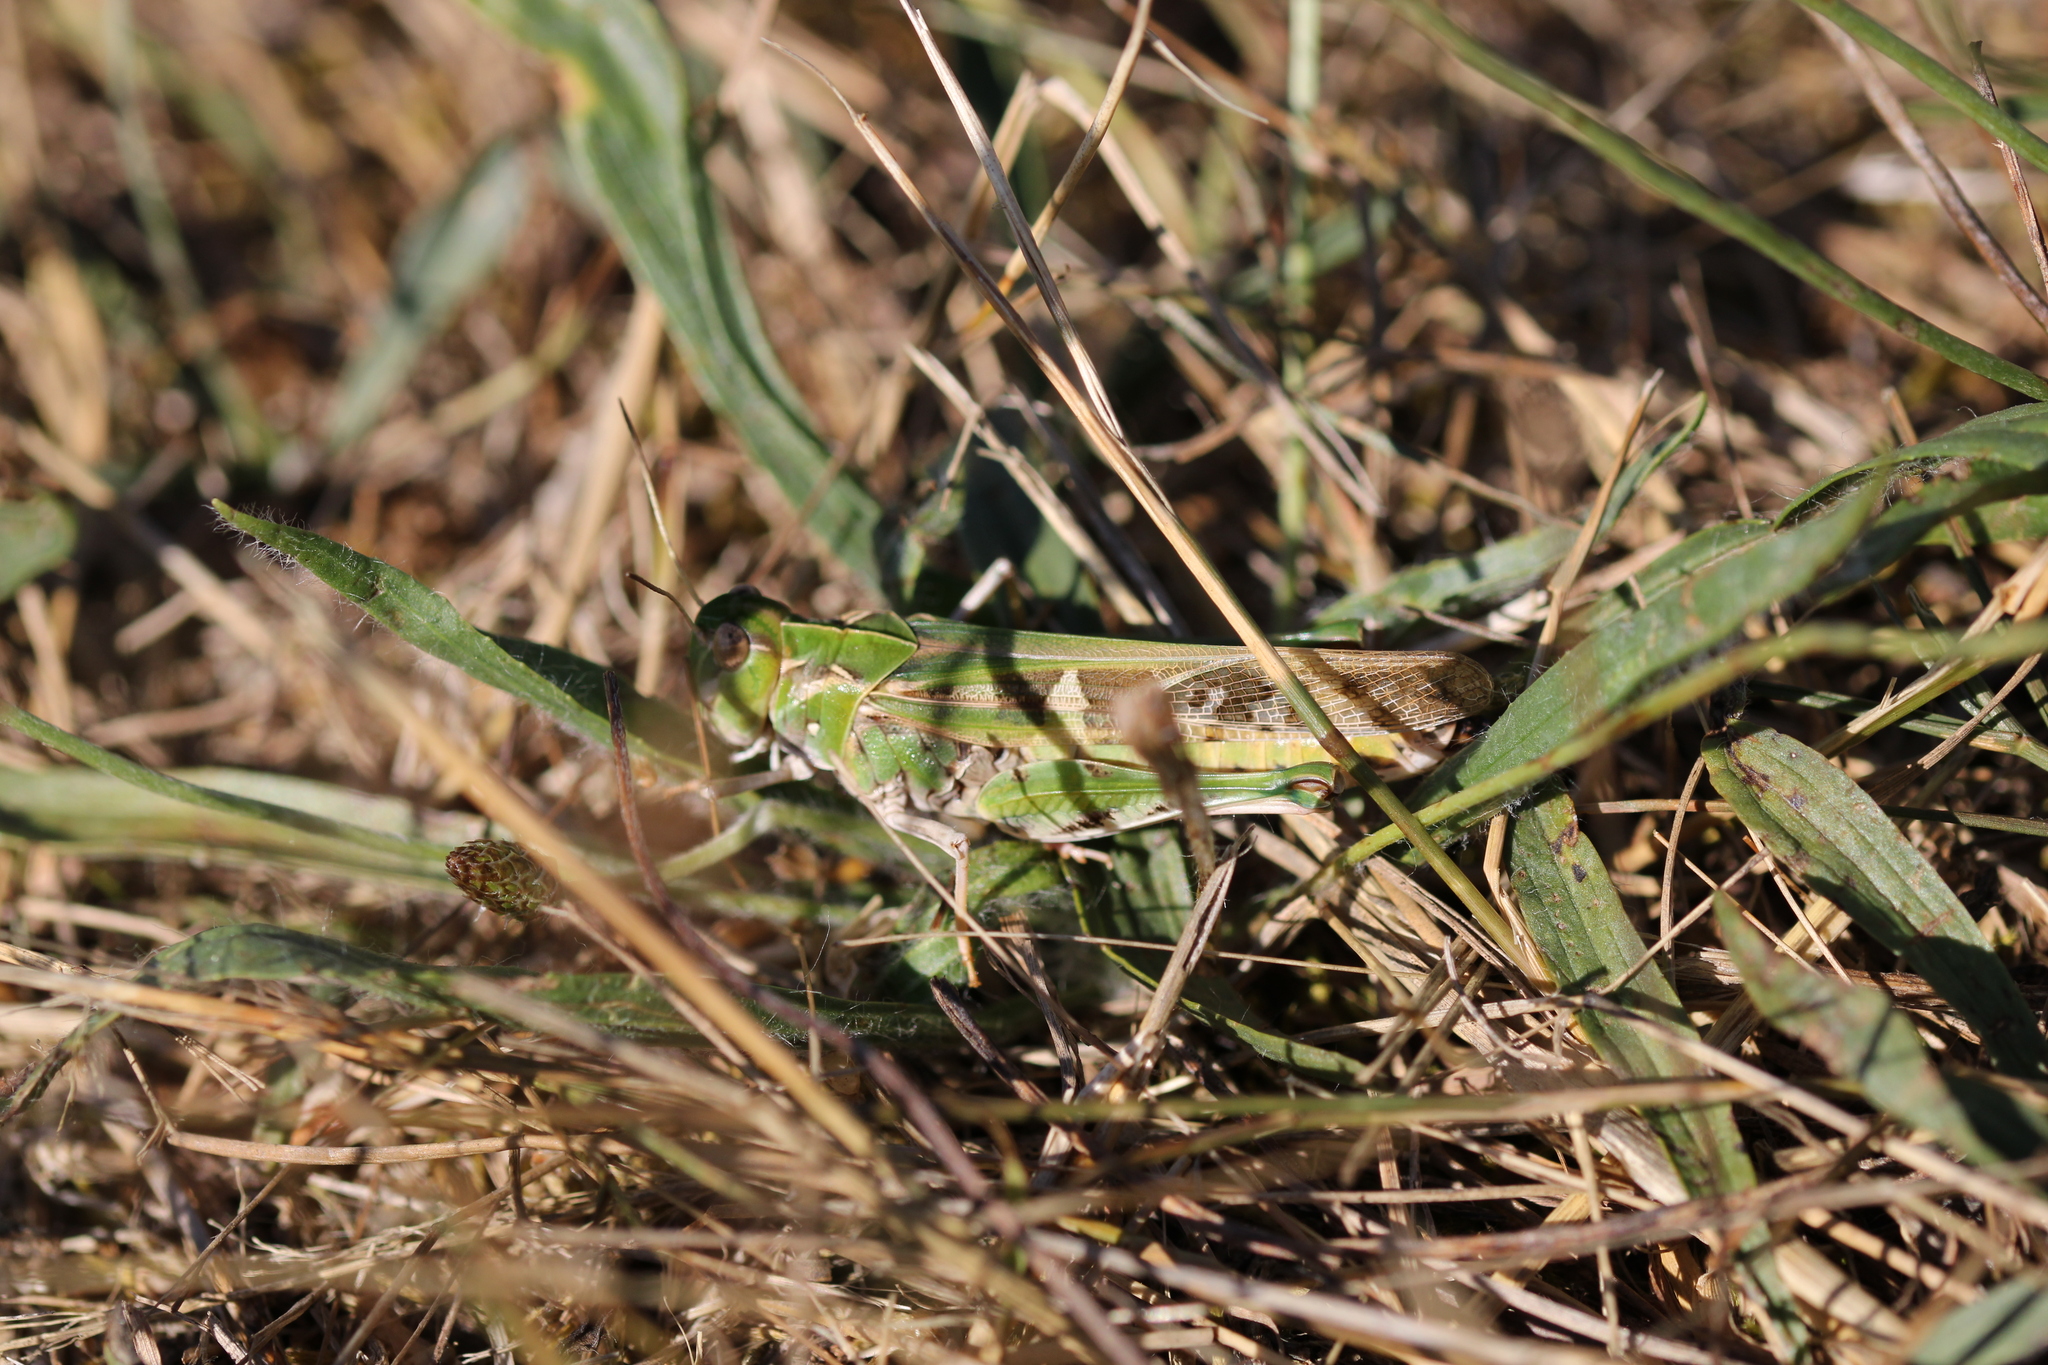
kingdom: Animalia
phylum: Arthropoda
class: Insecta
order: Orthoptera
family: Acrididae
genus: Oedaleus
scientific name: Oedaleus decorus
